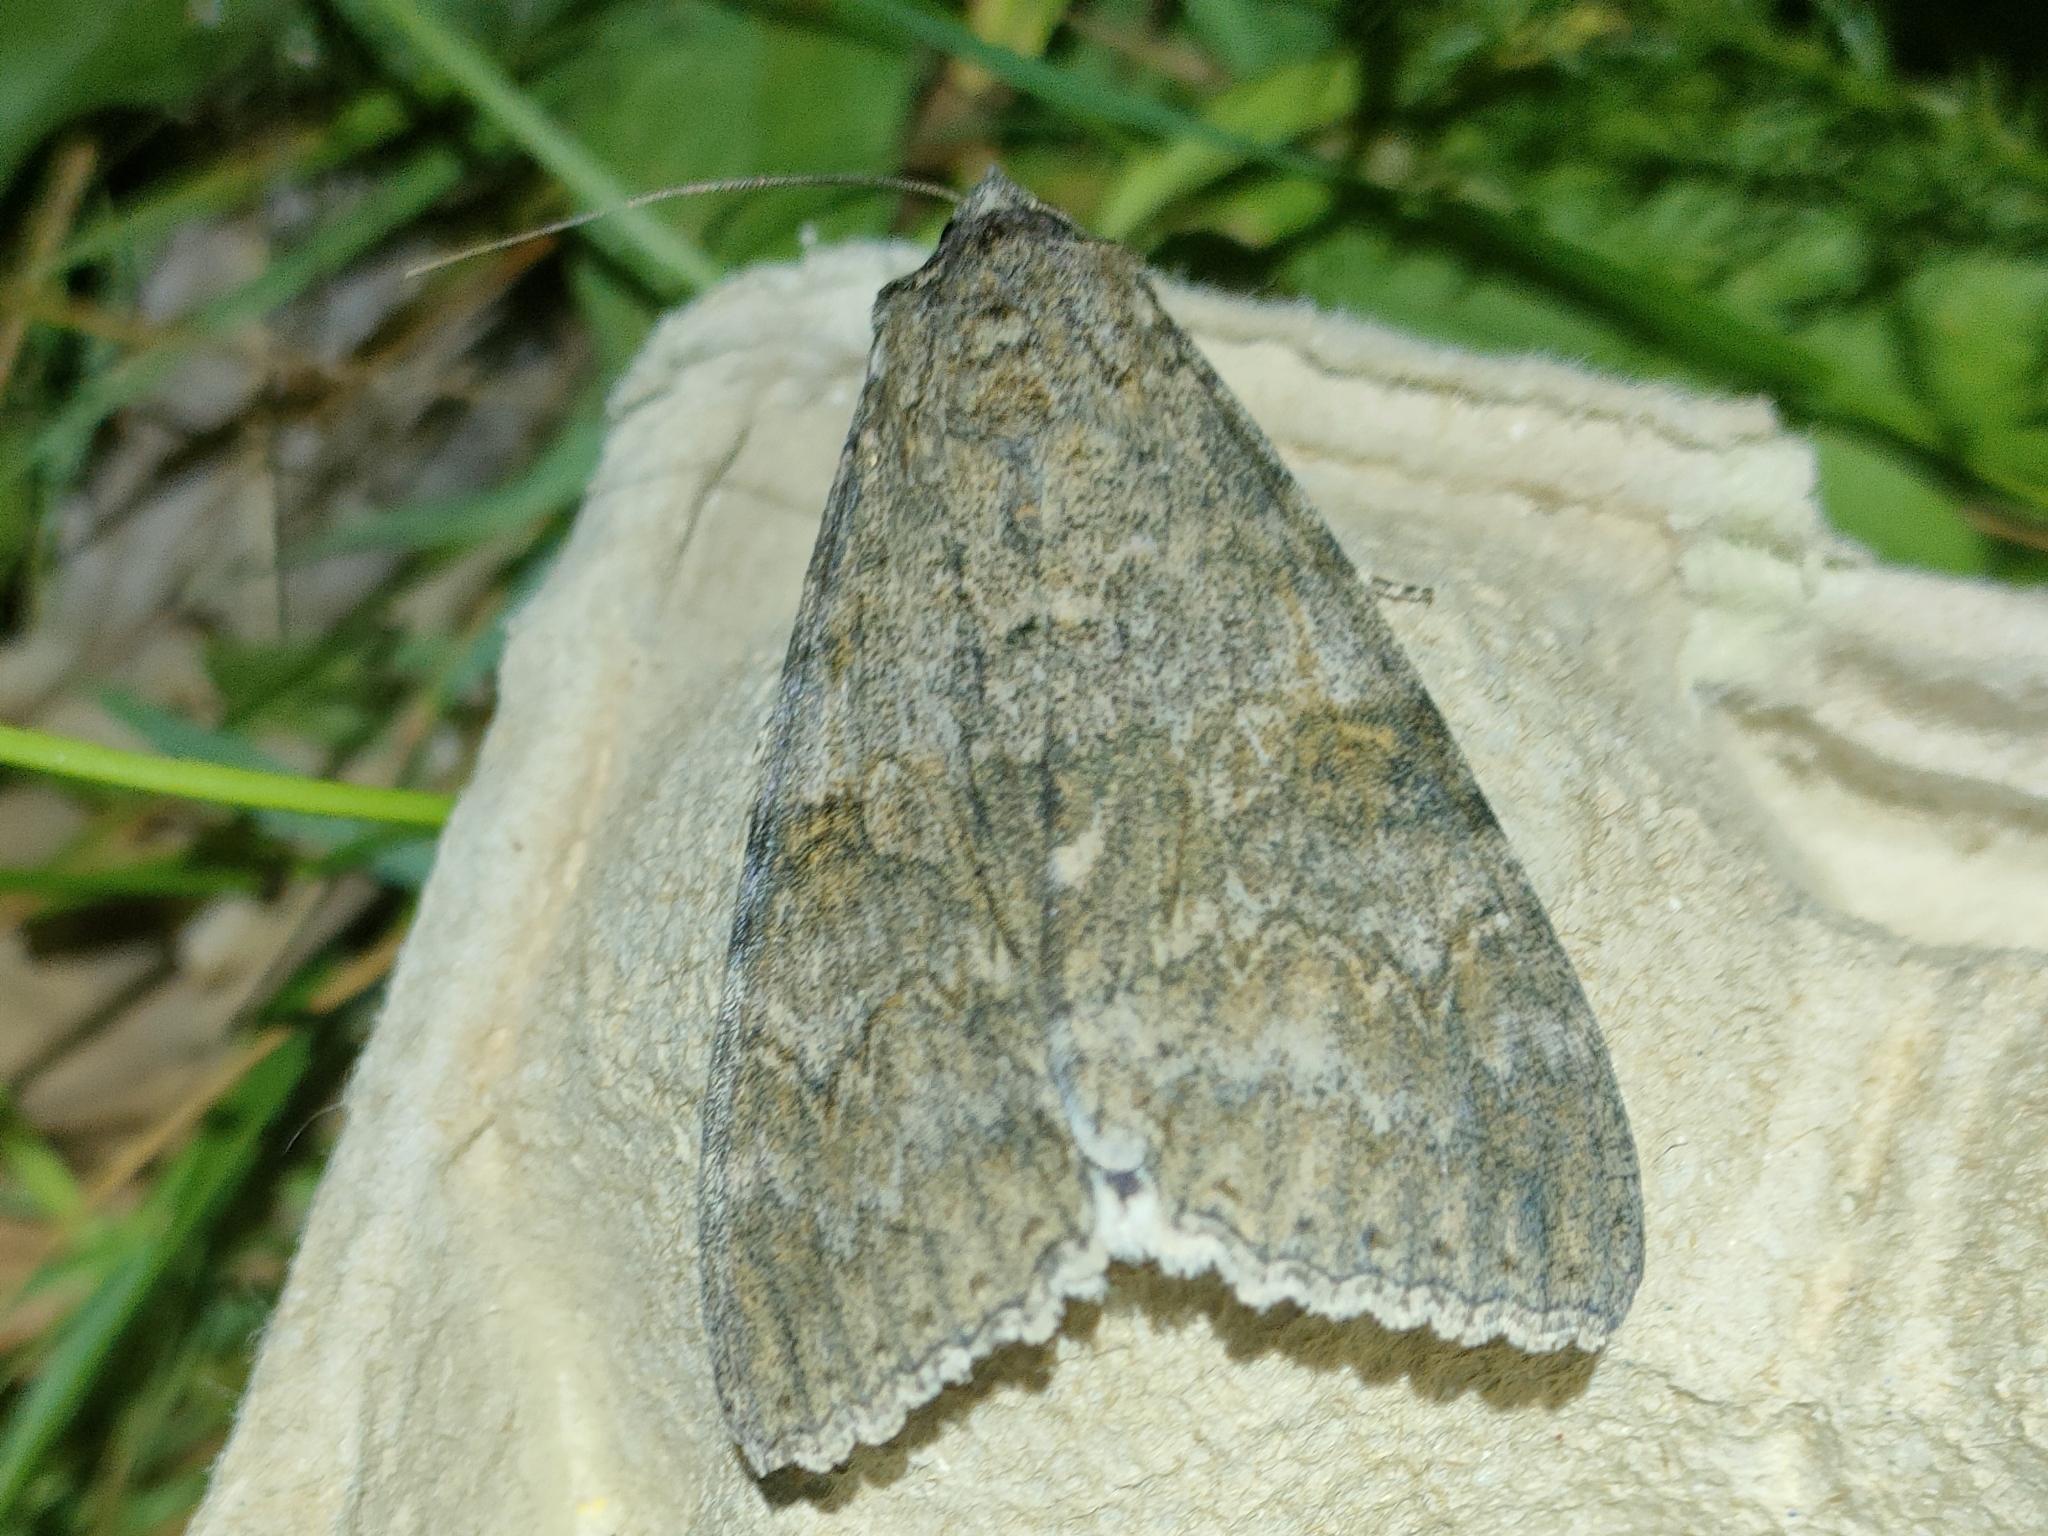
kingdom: Animalia
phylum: Arthropoda
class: Insecta
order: Lepidoptera
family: Erebidae
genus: Catocala
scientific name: Catocala nupta
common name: Red underwing
